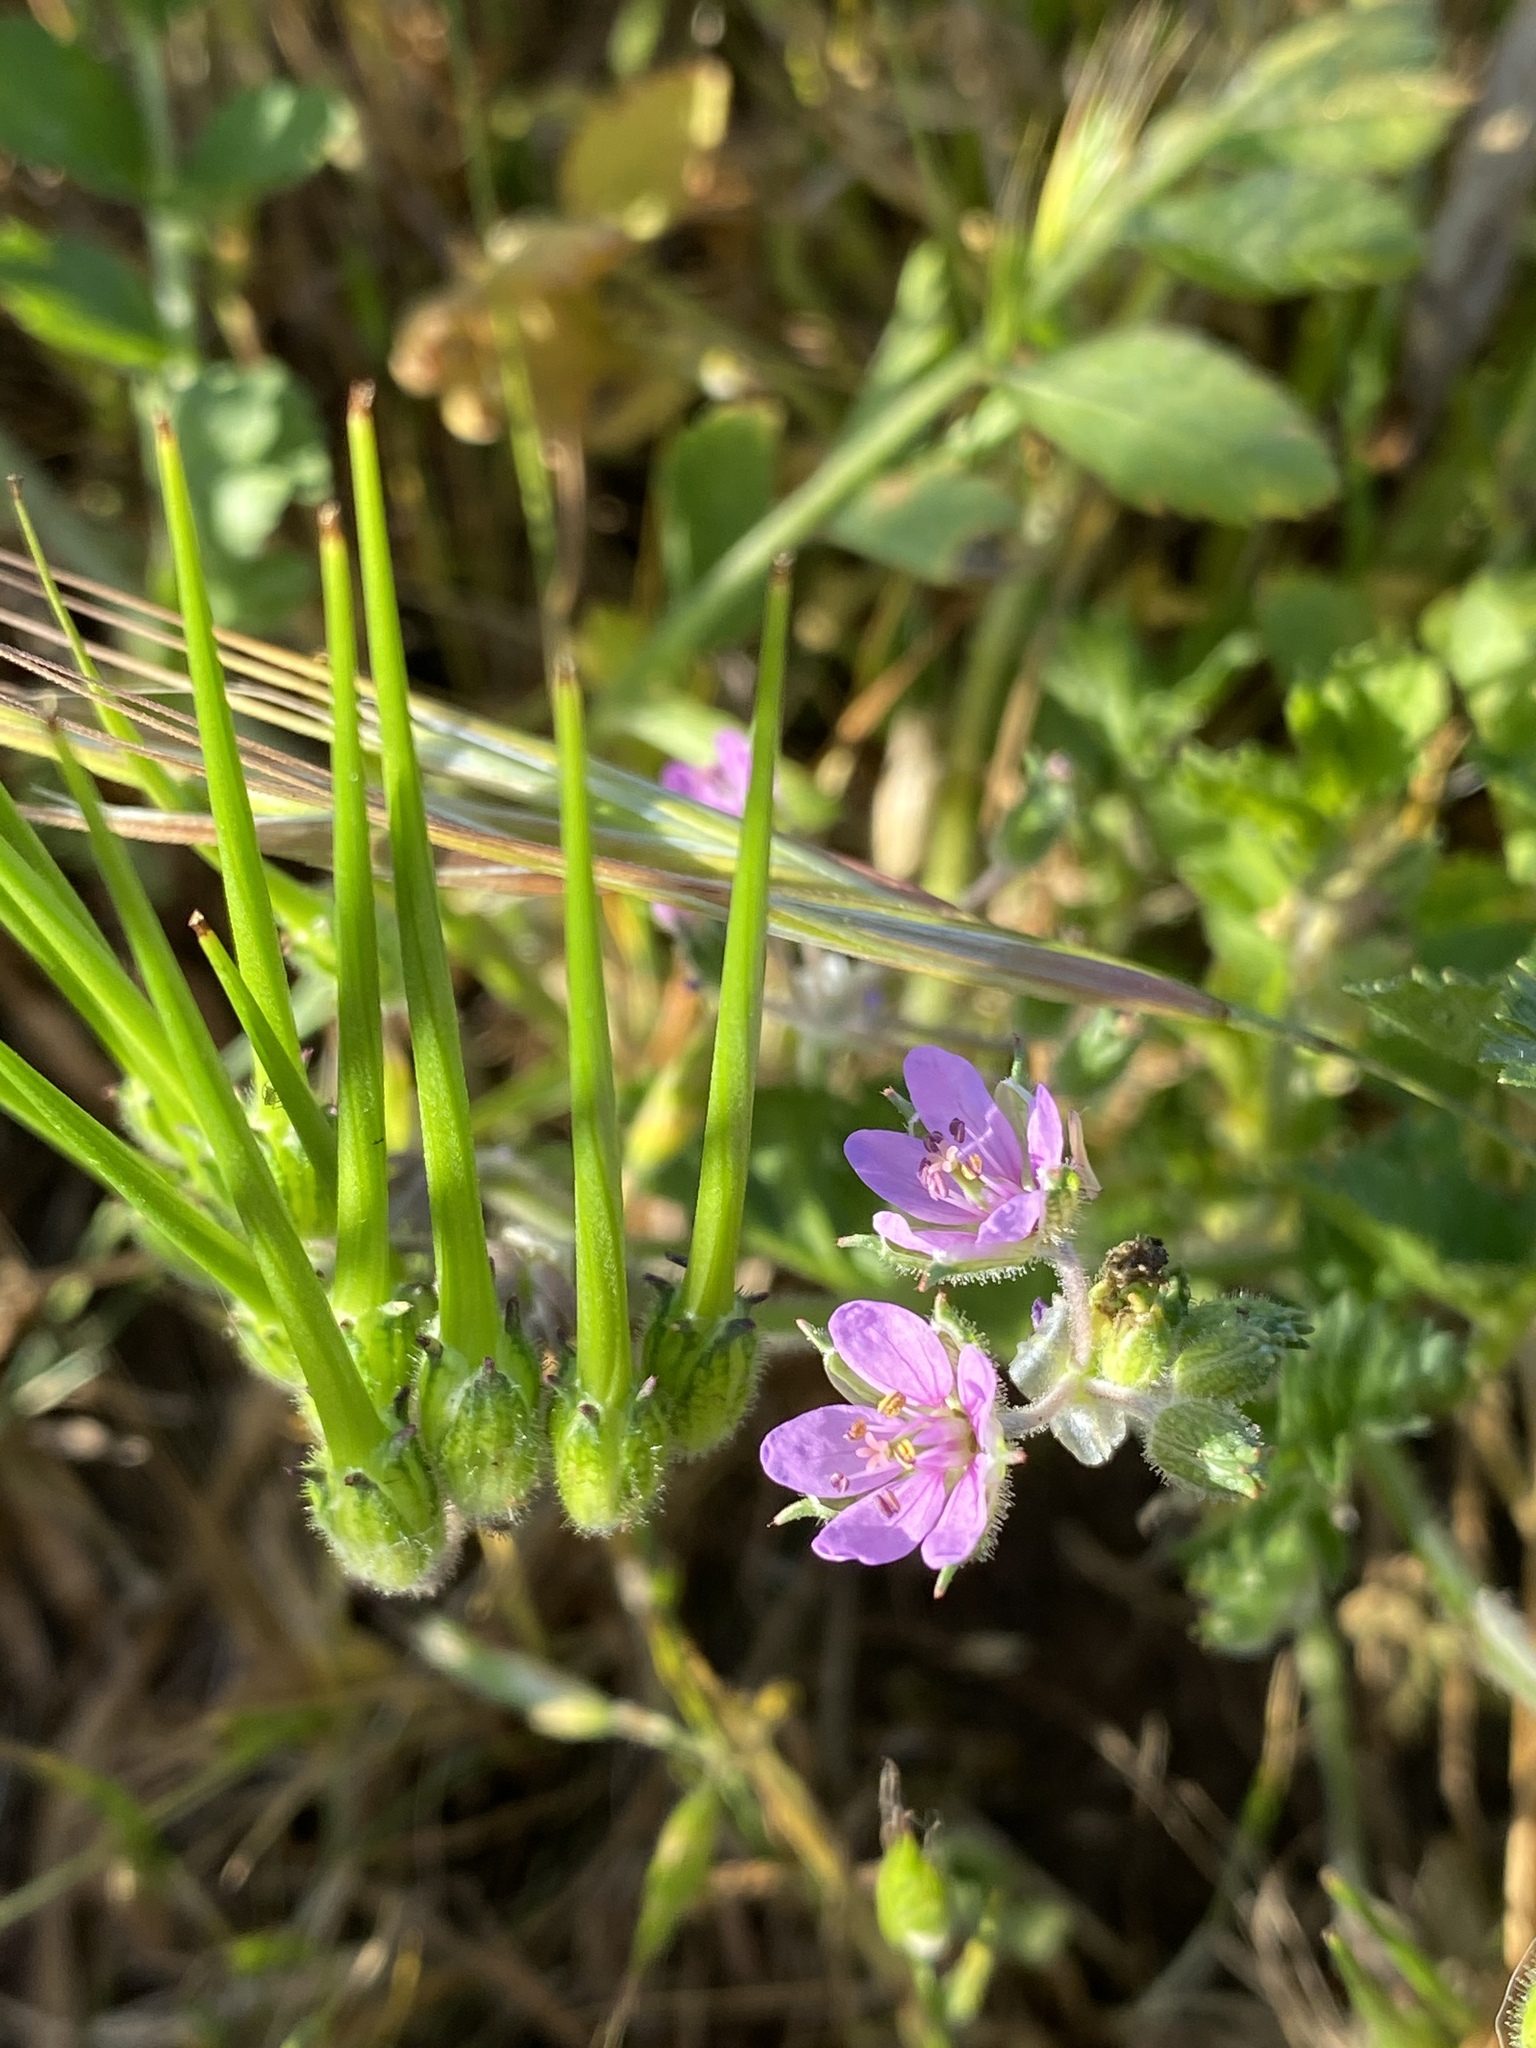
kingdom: Plantae
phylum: Tracheophyta
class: Magnoliopsida
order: Geraniales
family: Geraniaceae
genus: Erodium
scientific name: Erodium moschatum
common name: Musk stork's-bill
